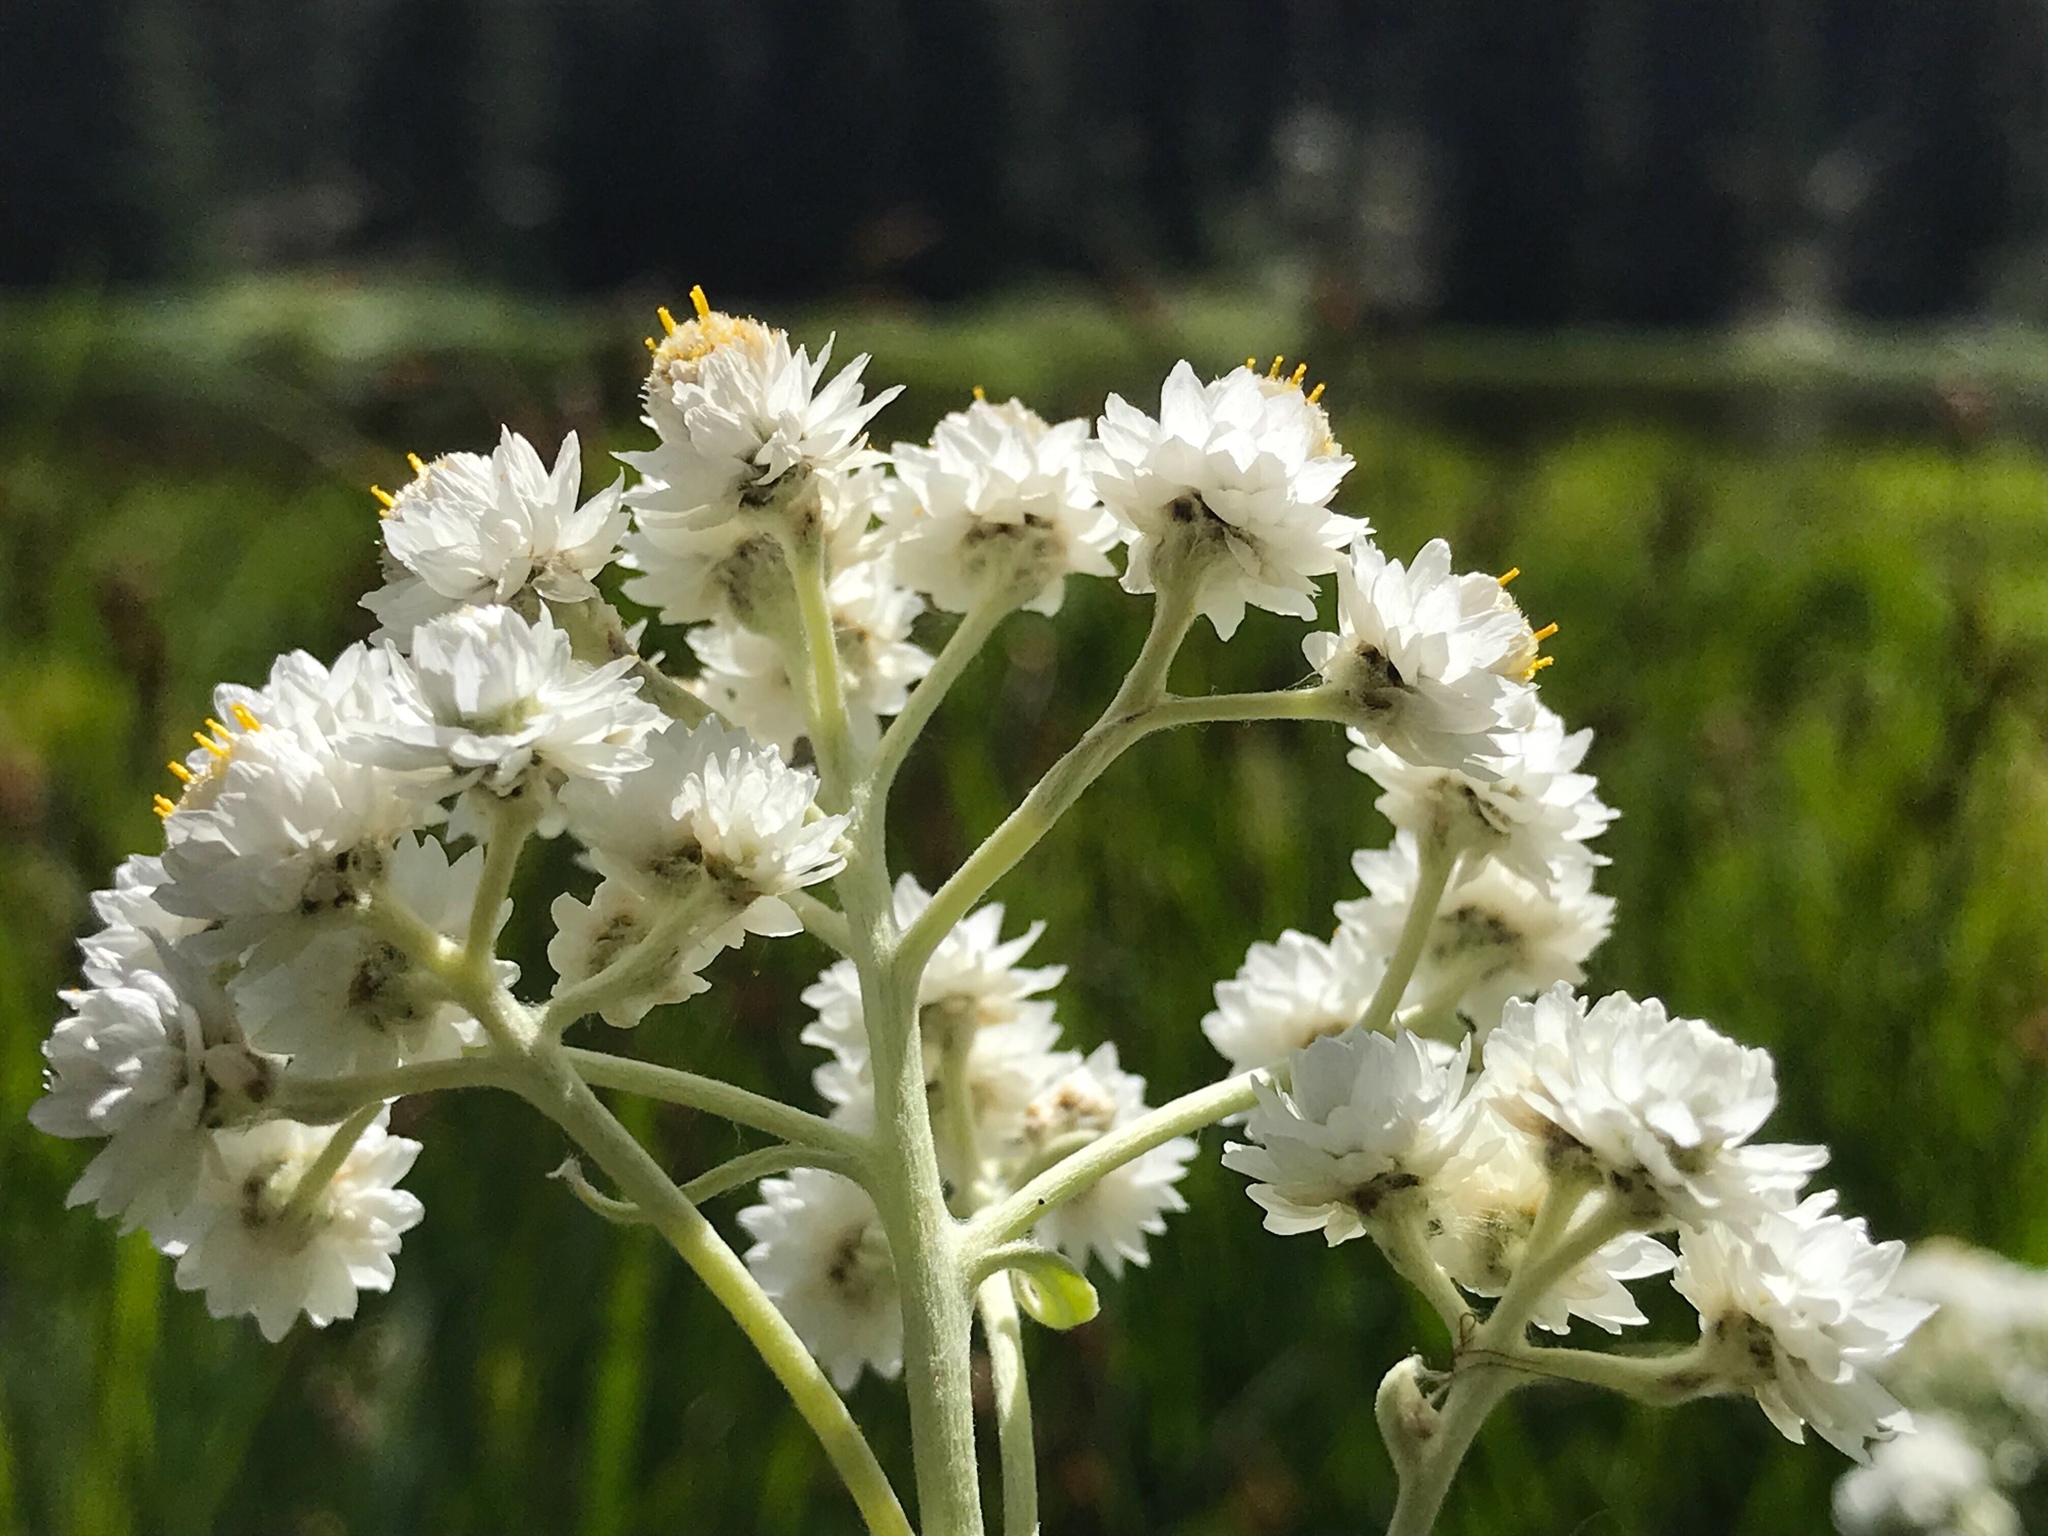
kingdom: Plantae
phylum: Tracheophyta
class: Magnoliopsida
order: Asterales
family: Asteraceae
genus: Anaphalis
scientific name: Anaphalis margaritacea
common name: Pearly everlasting
